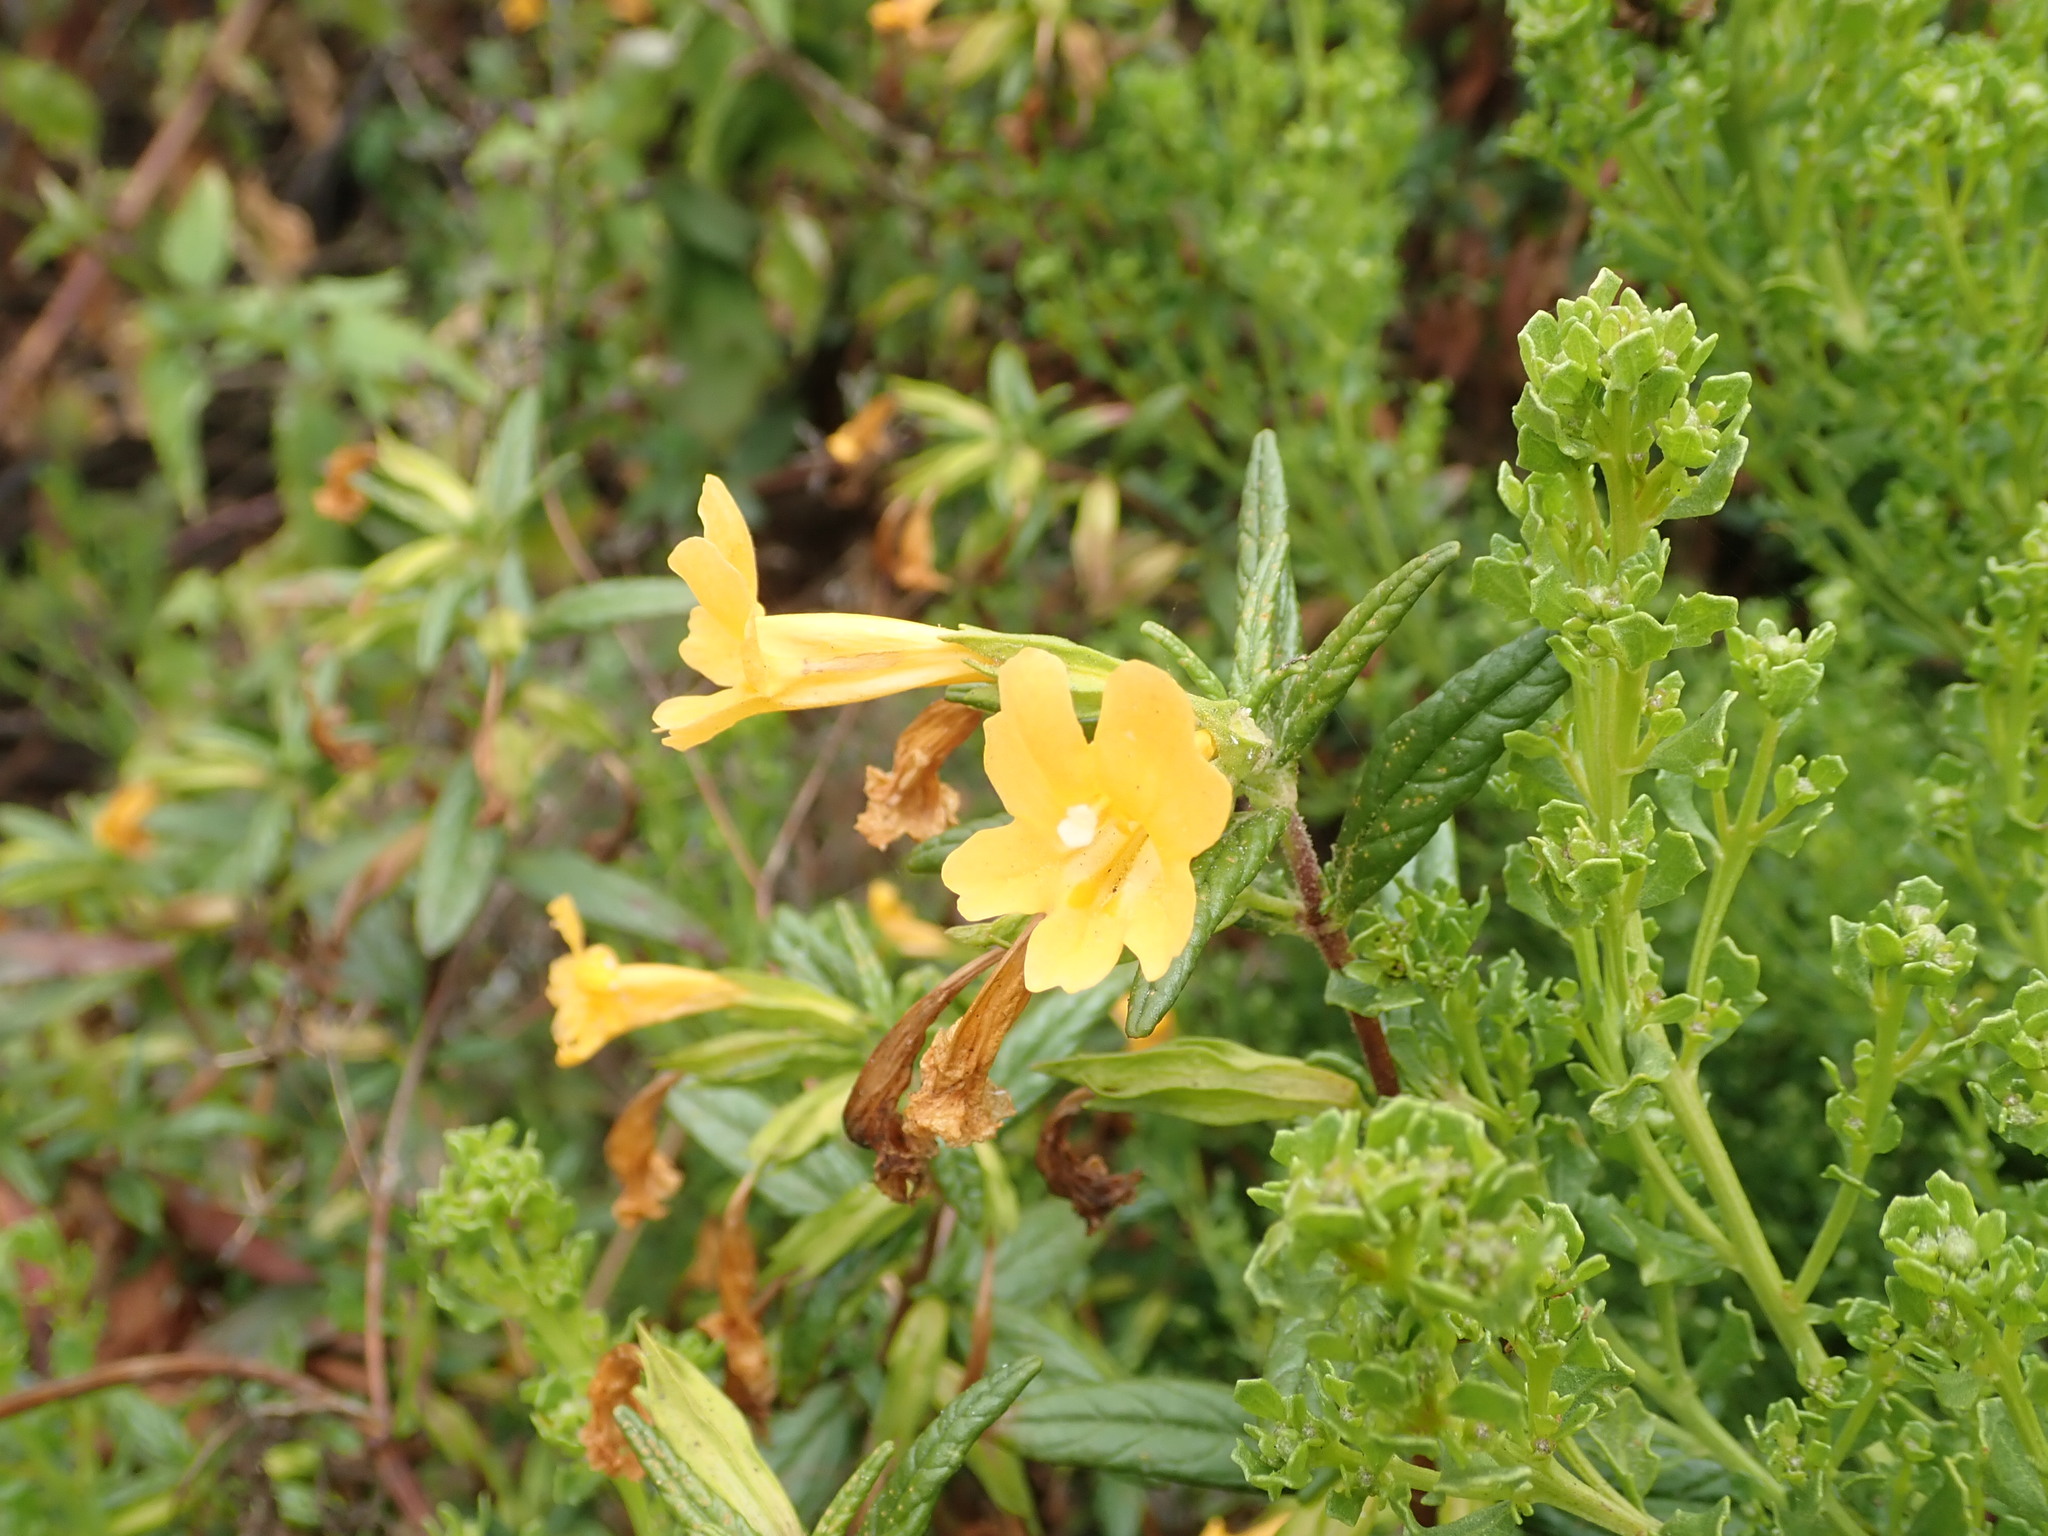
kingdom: Plantae
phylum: Tracheophyta
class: Magnoliopsida
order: Asterales
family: Asteraceae
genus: Baccharis
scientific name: Baccharis pilularis
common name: Coyotebrush
